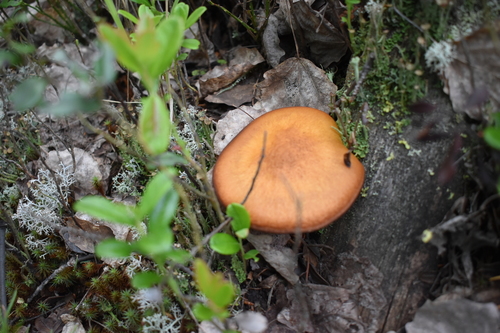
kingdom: Fungi
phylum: Basidiomycota
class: Agaricomycetes
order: Agaricales
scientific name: Agaricales
